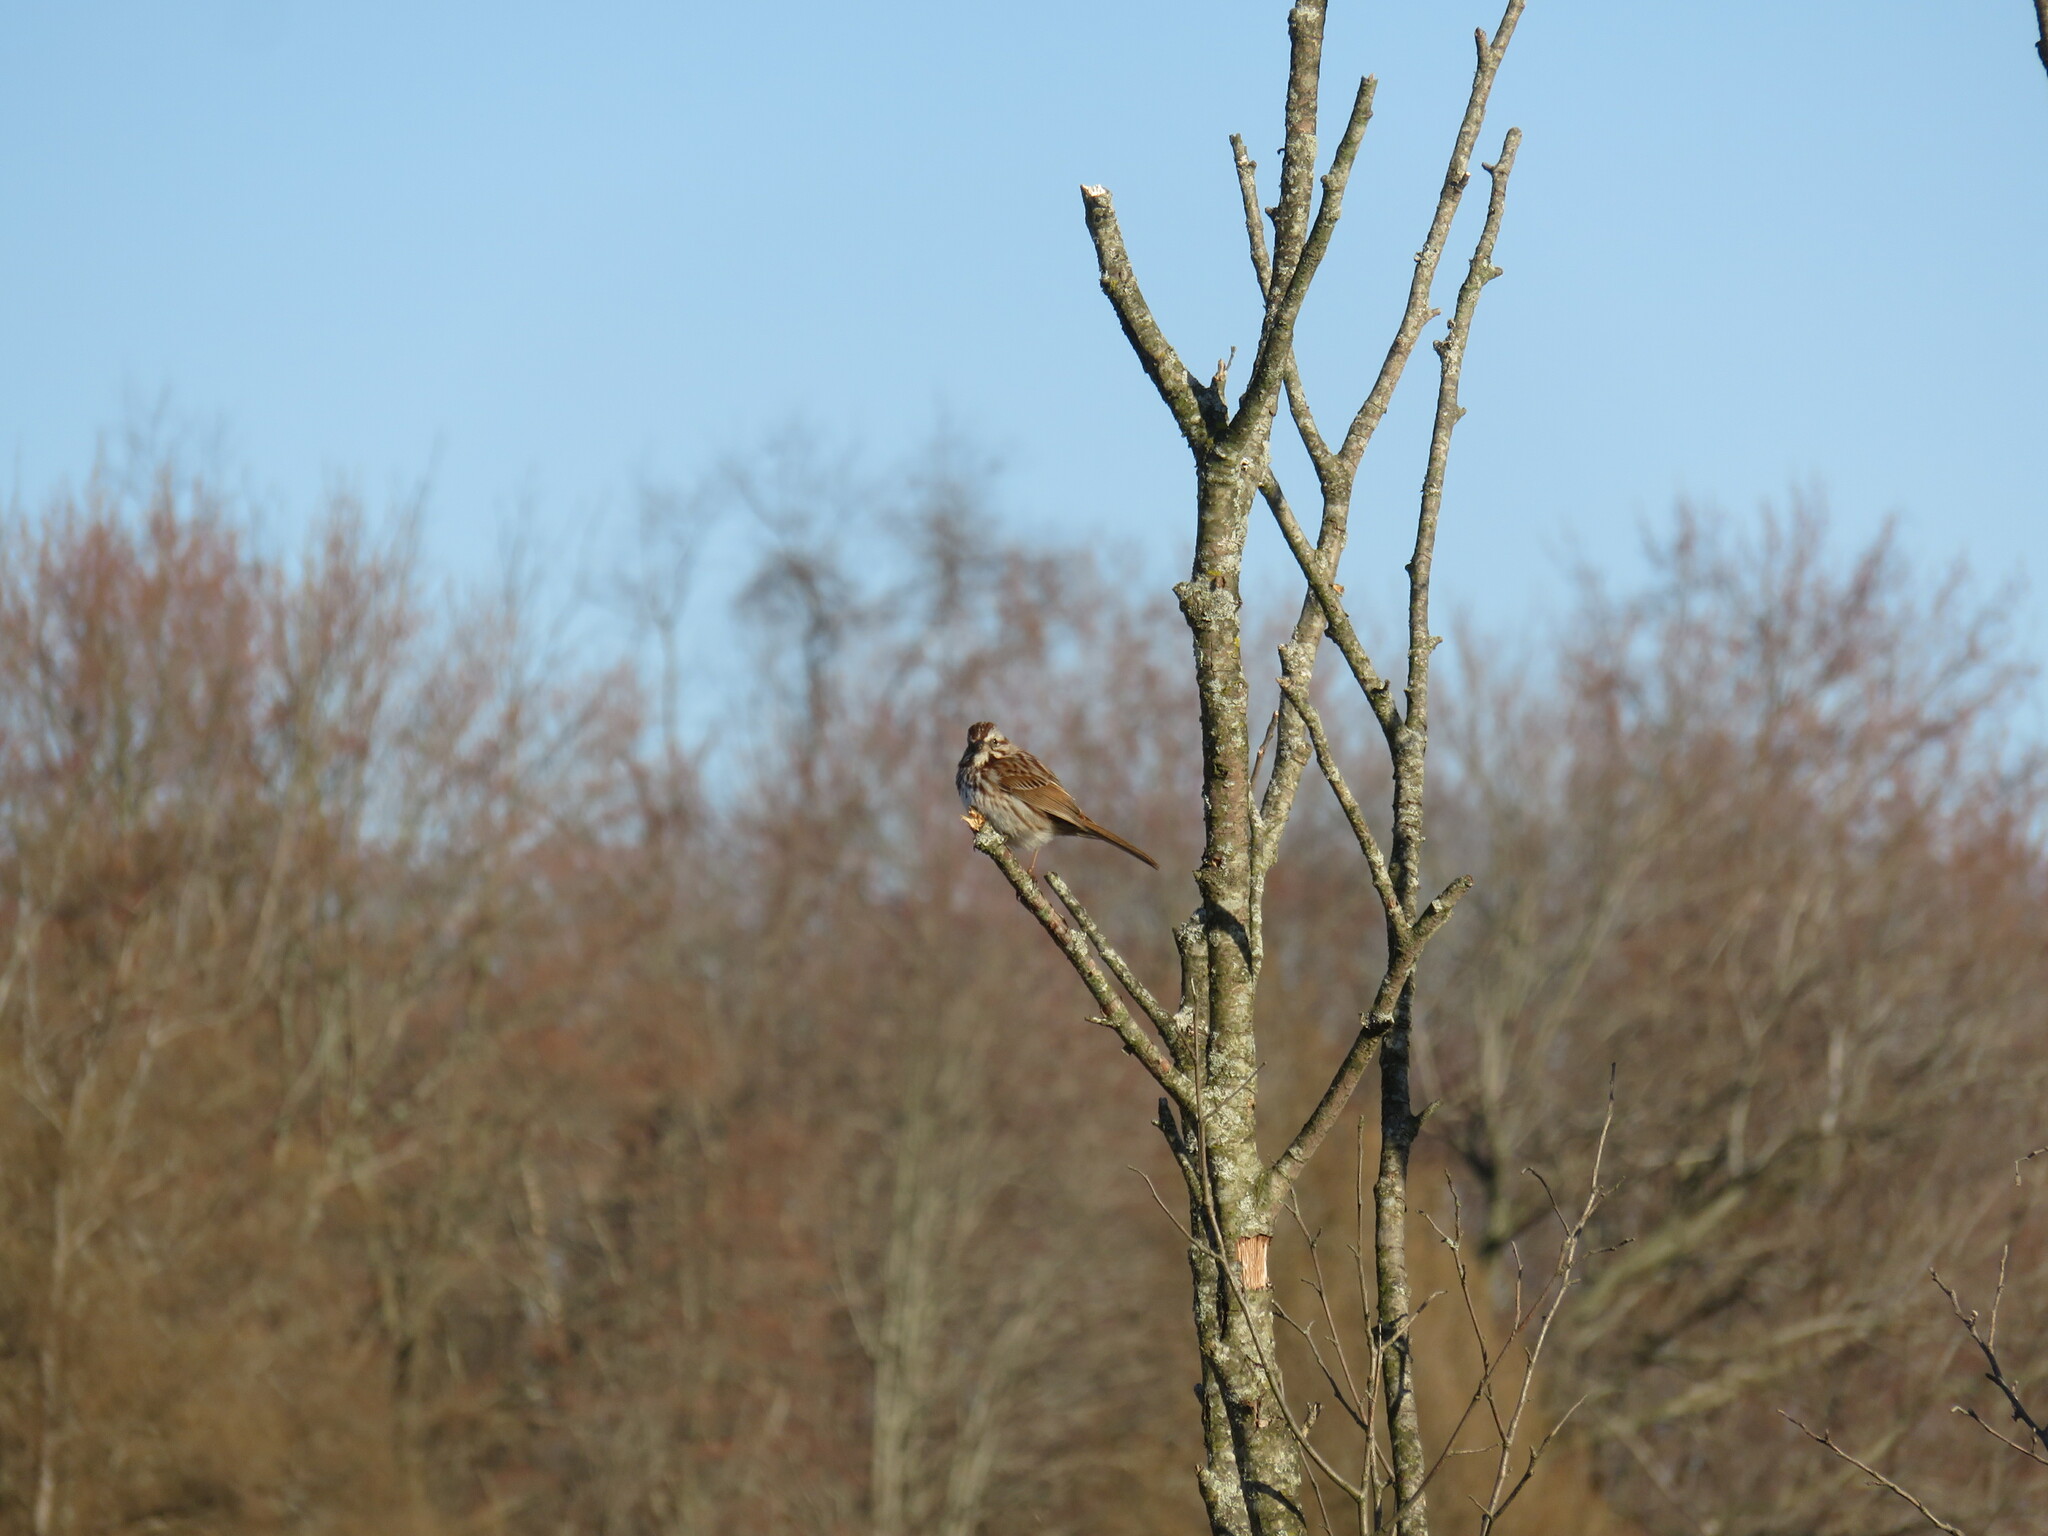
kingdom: Animalia
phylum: Chordata
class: Aves
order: Passeriformes
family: Passerellidae
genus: Melospiza
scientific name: Melospiza melodia
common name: Song sparrow
